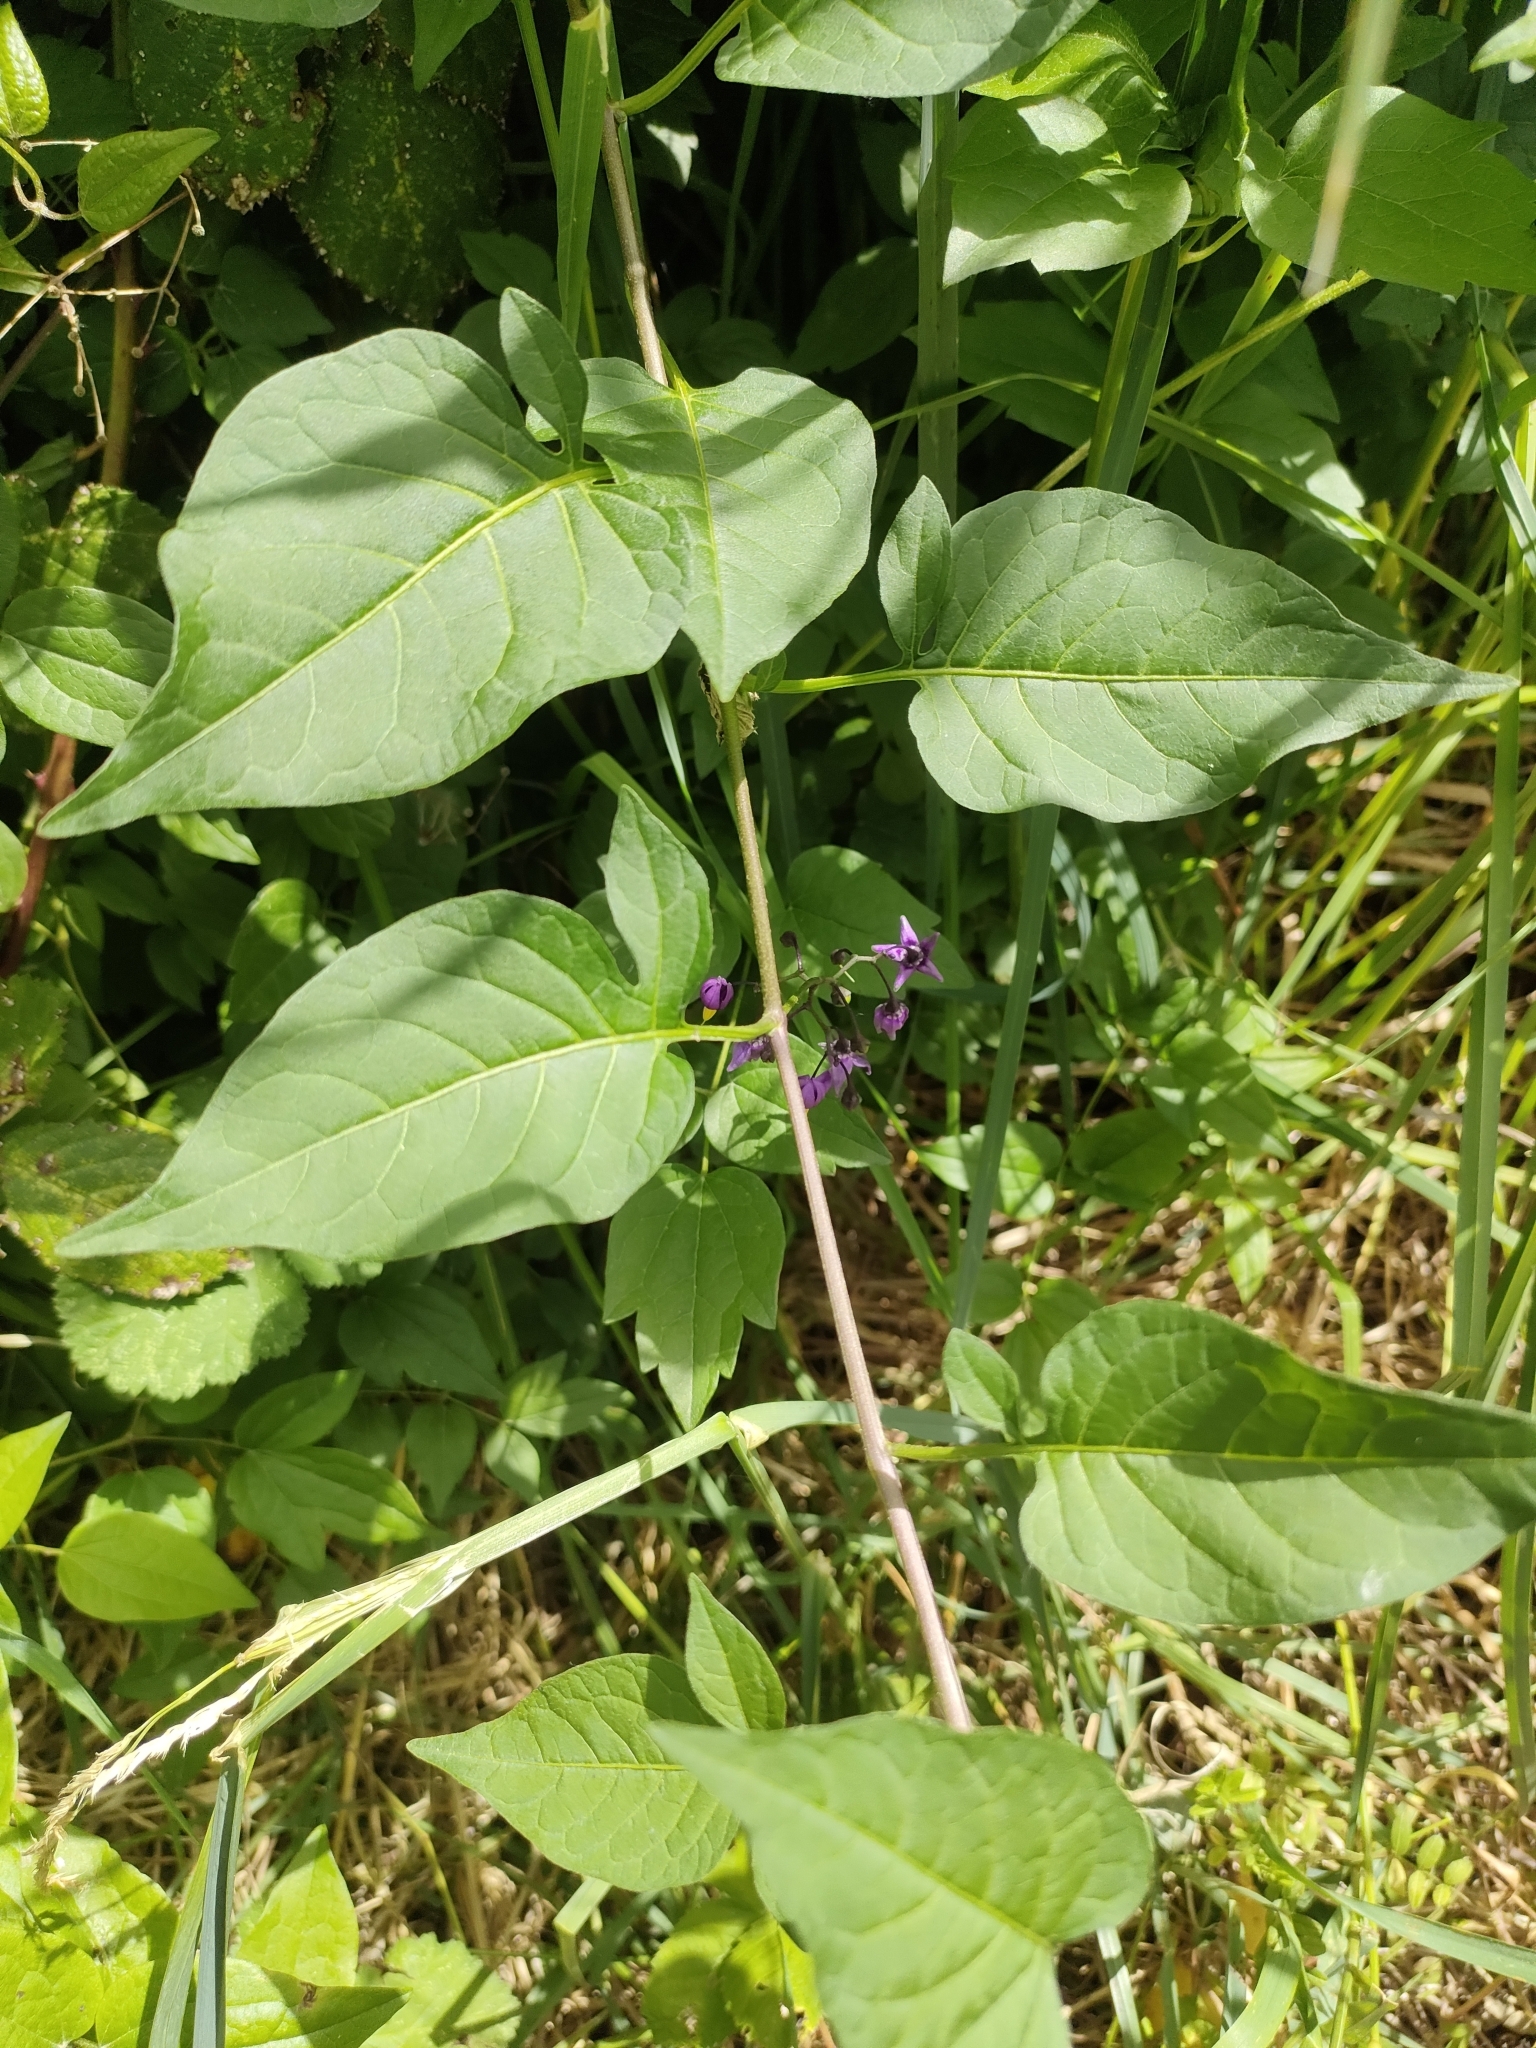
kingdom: Plantae
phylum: Tracheophyta
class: Magnoliopsida
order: Solanales
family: Solanaceae
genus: Solanum
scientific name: Solanum dulcamara
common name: Climbing nightshade
